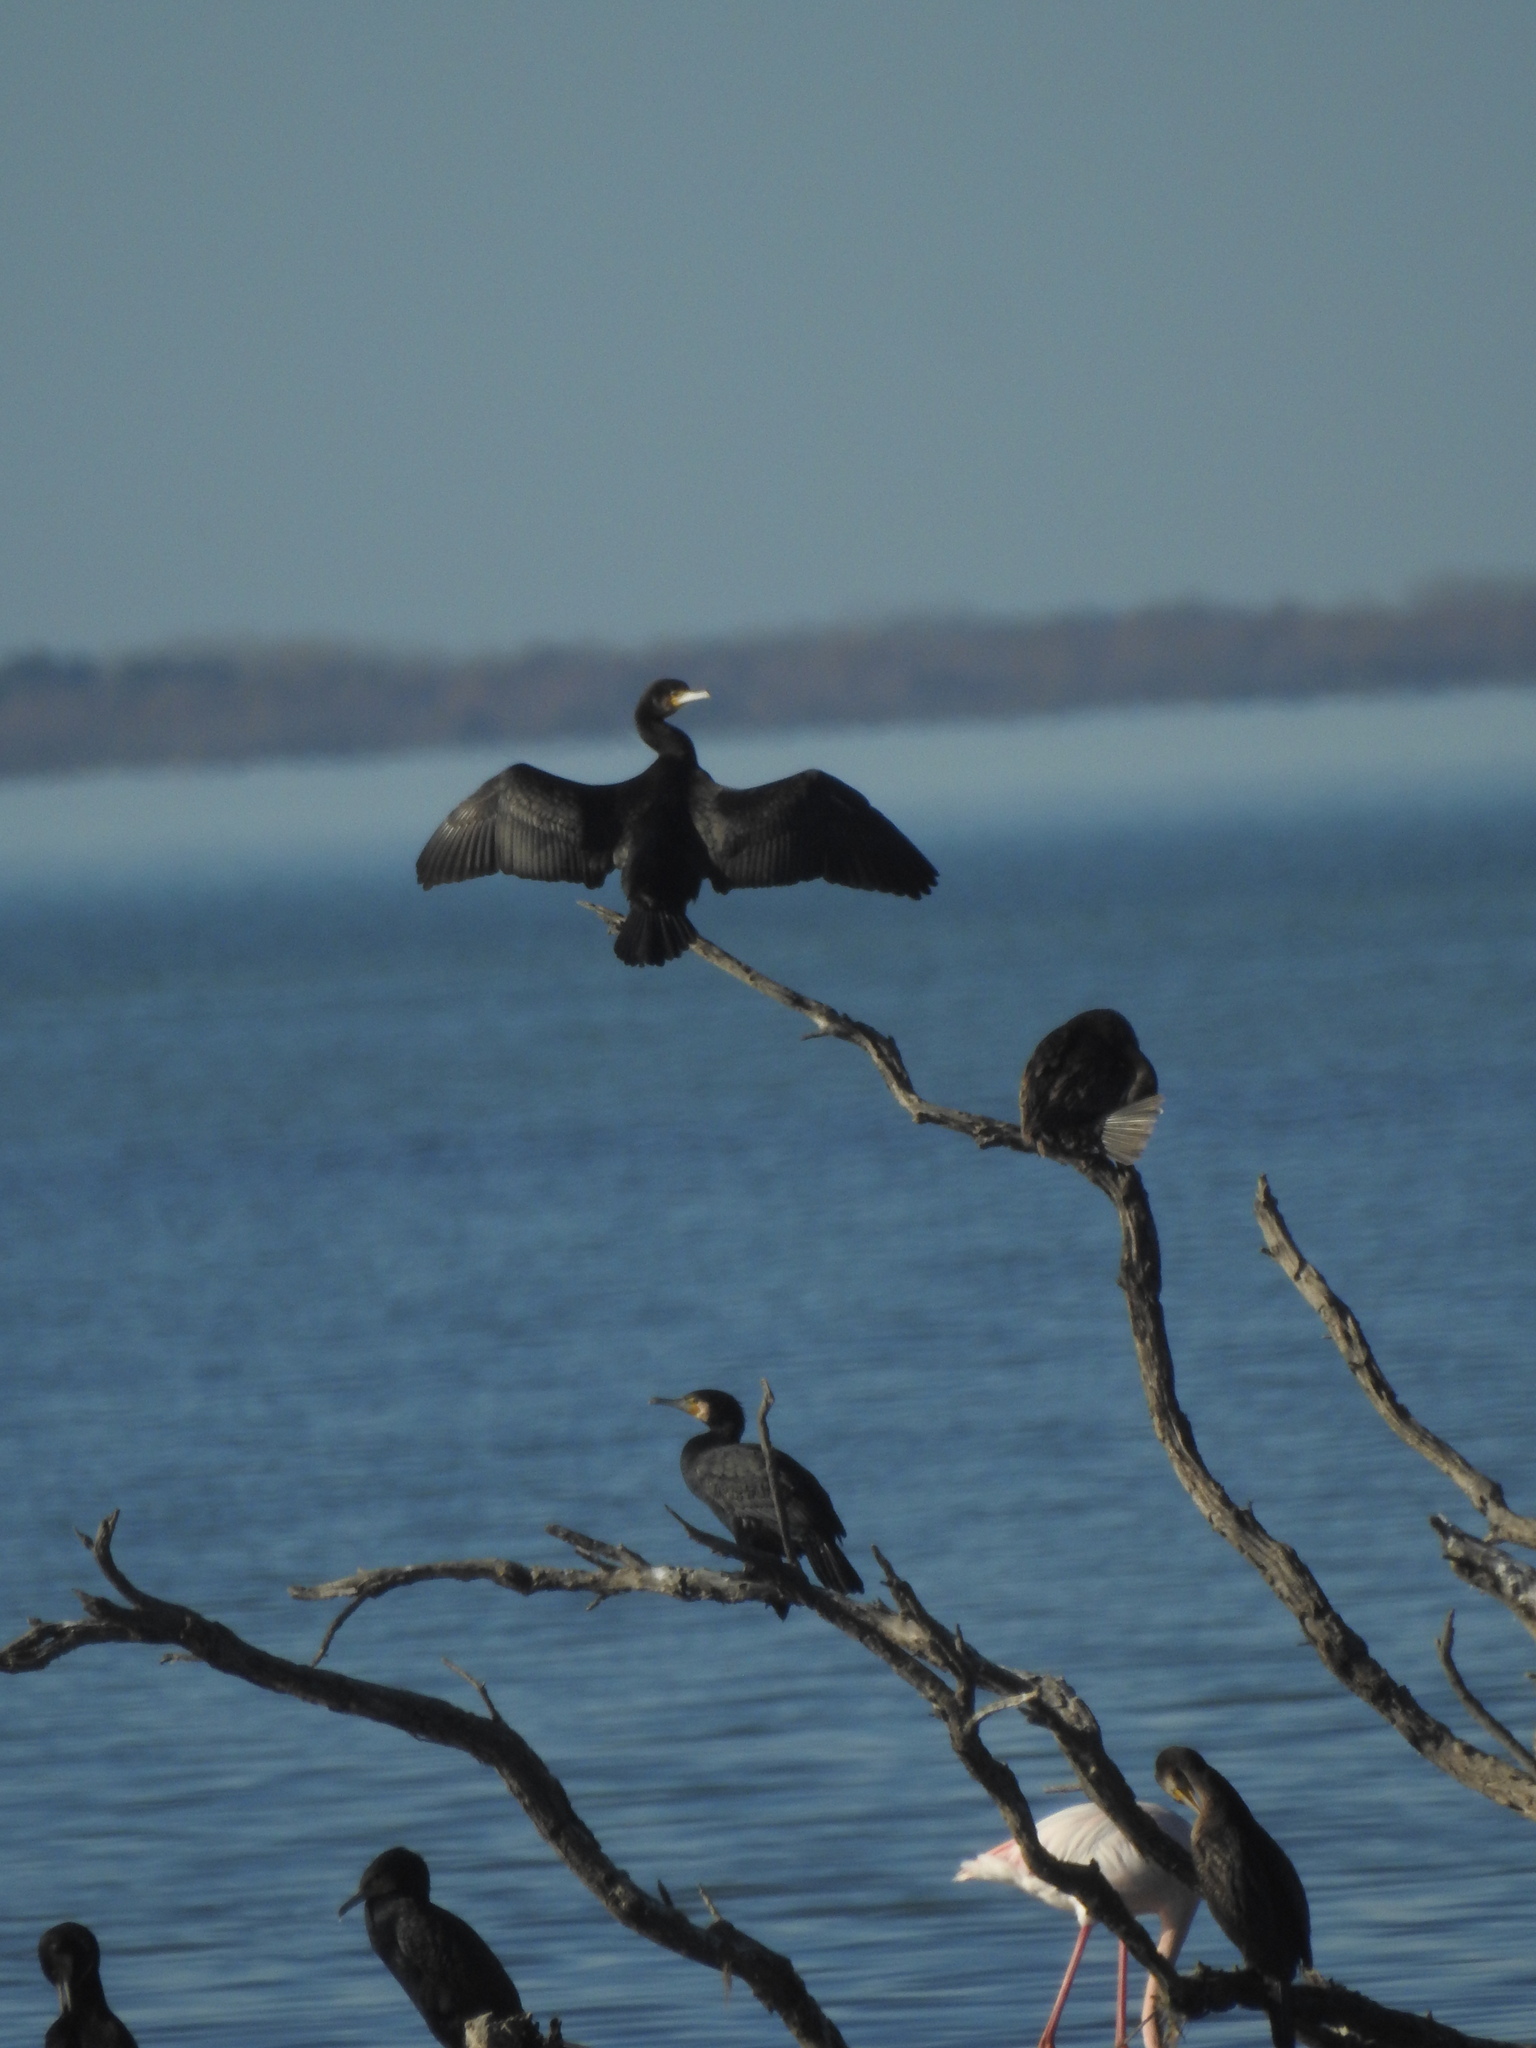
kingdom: Animalia
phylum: Chordata
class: Aves
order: Suliformes
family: Phalacrocoracidae
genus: Phalacrocorax
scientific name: Phalacrocorax carbo
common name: Great cormorant
